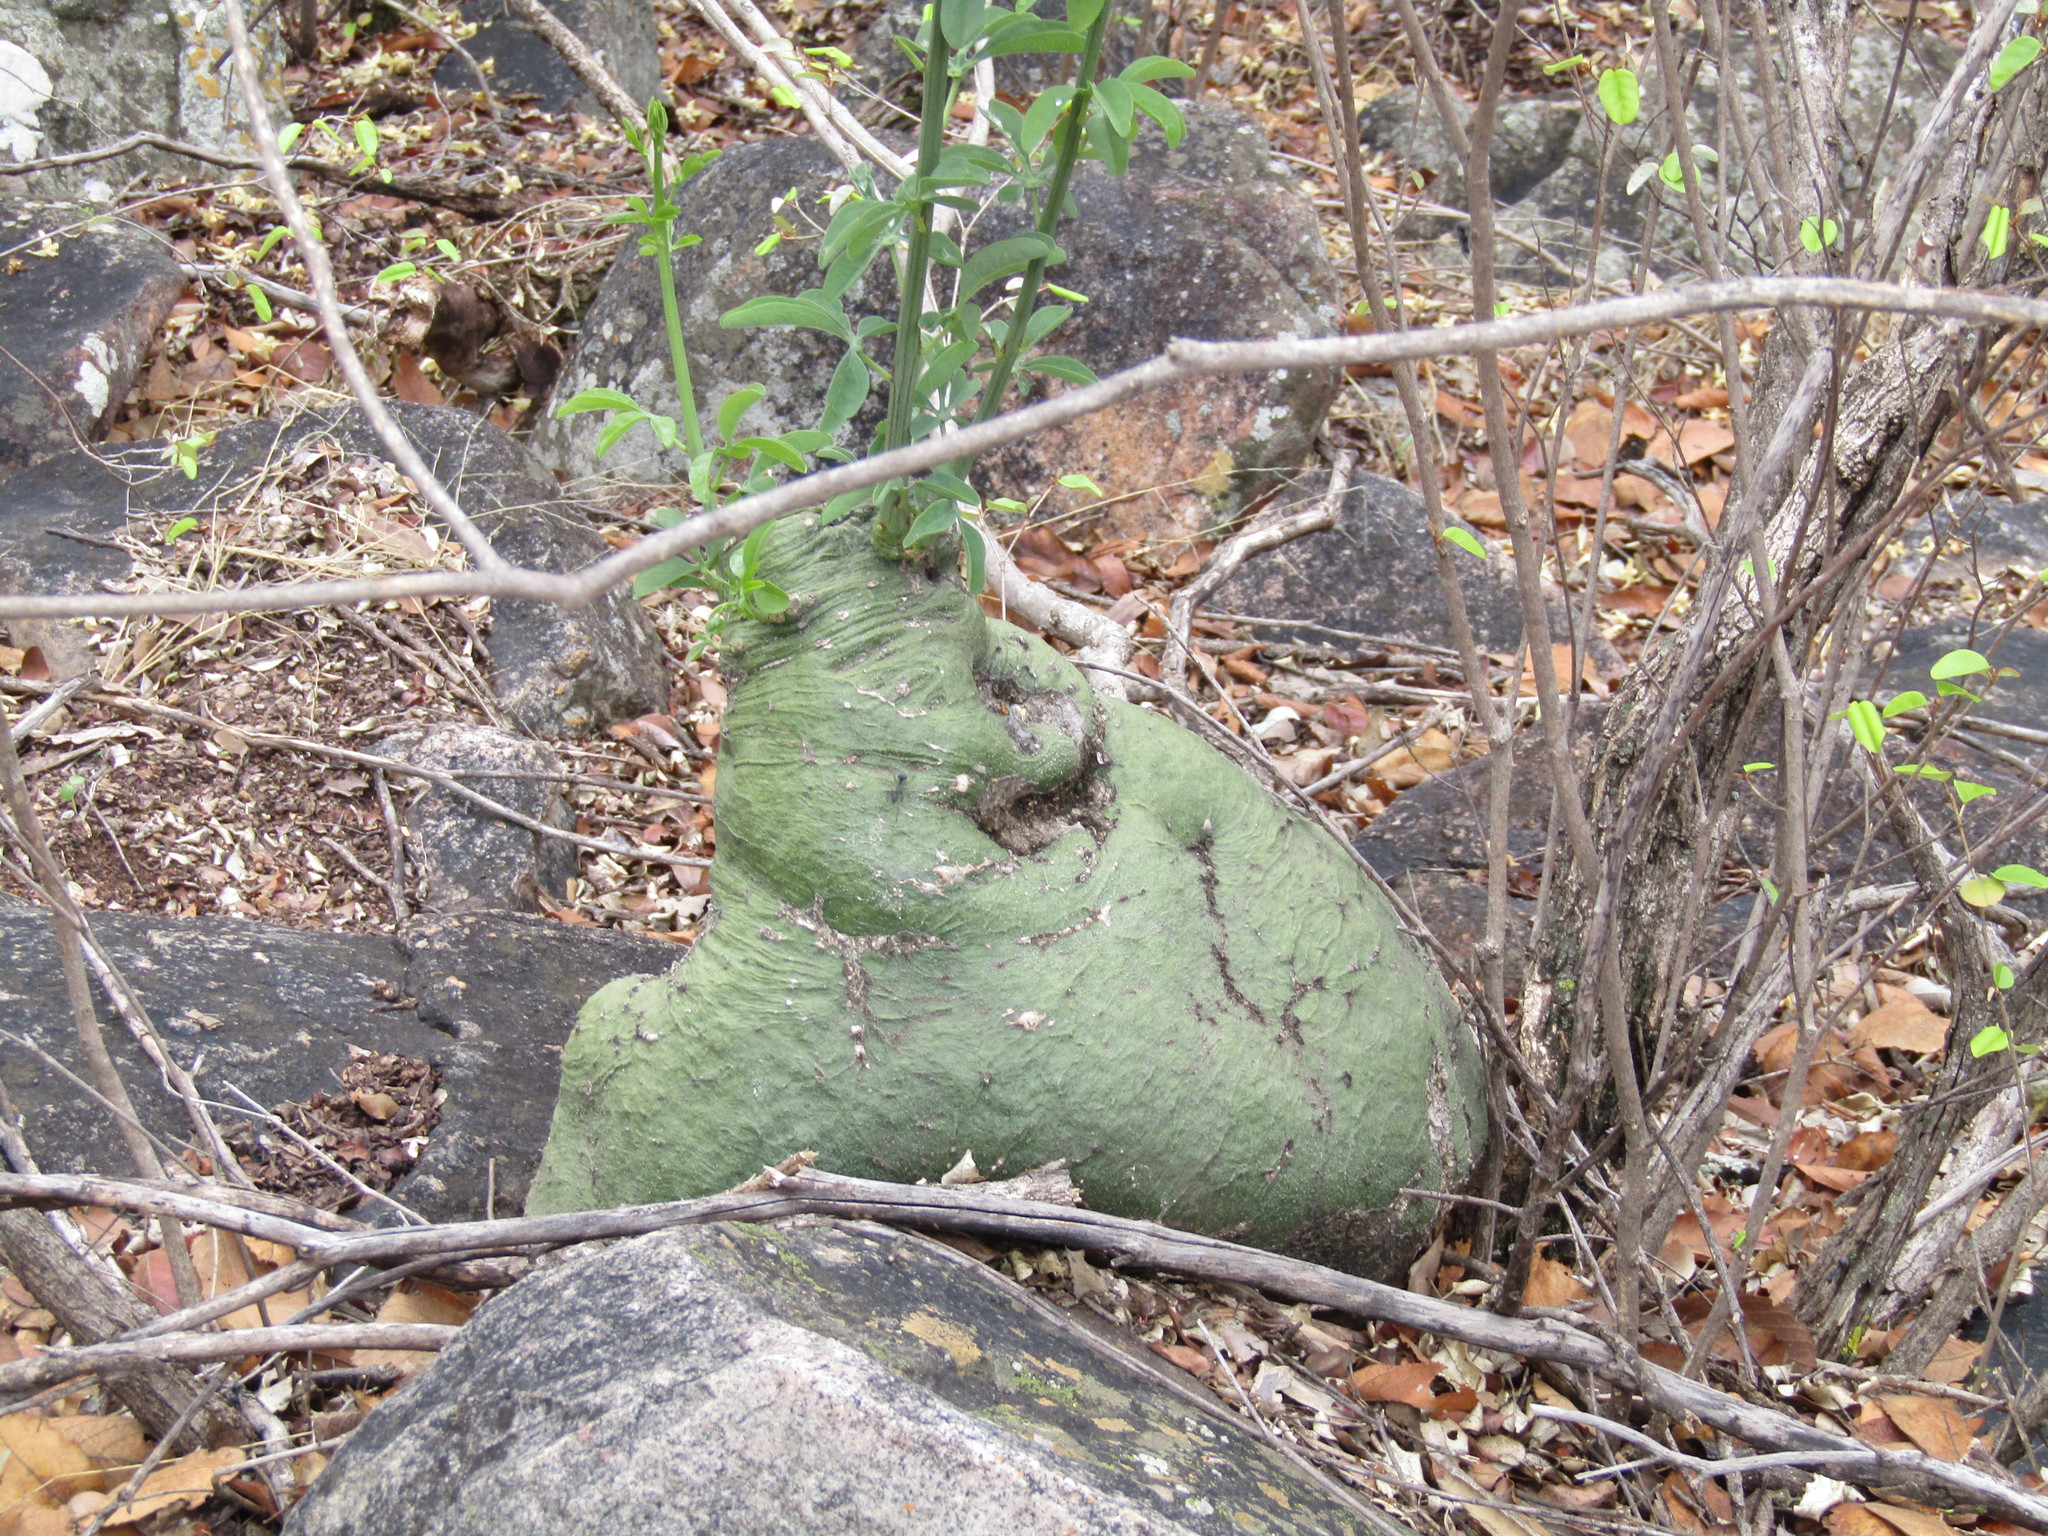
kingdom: Plantae
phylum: Tracheophyta
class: Magnoliopsida
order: Malpighiales
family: Passifloraceae
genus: Adenia
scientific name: Adenia glauca
